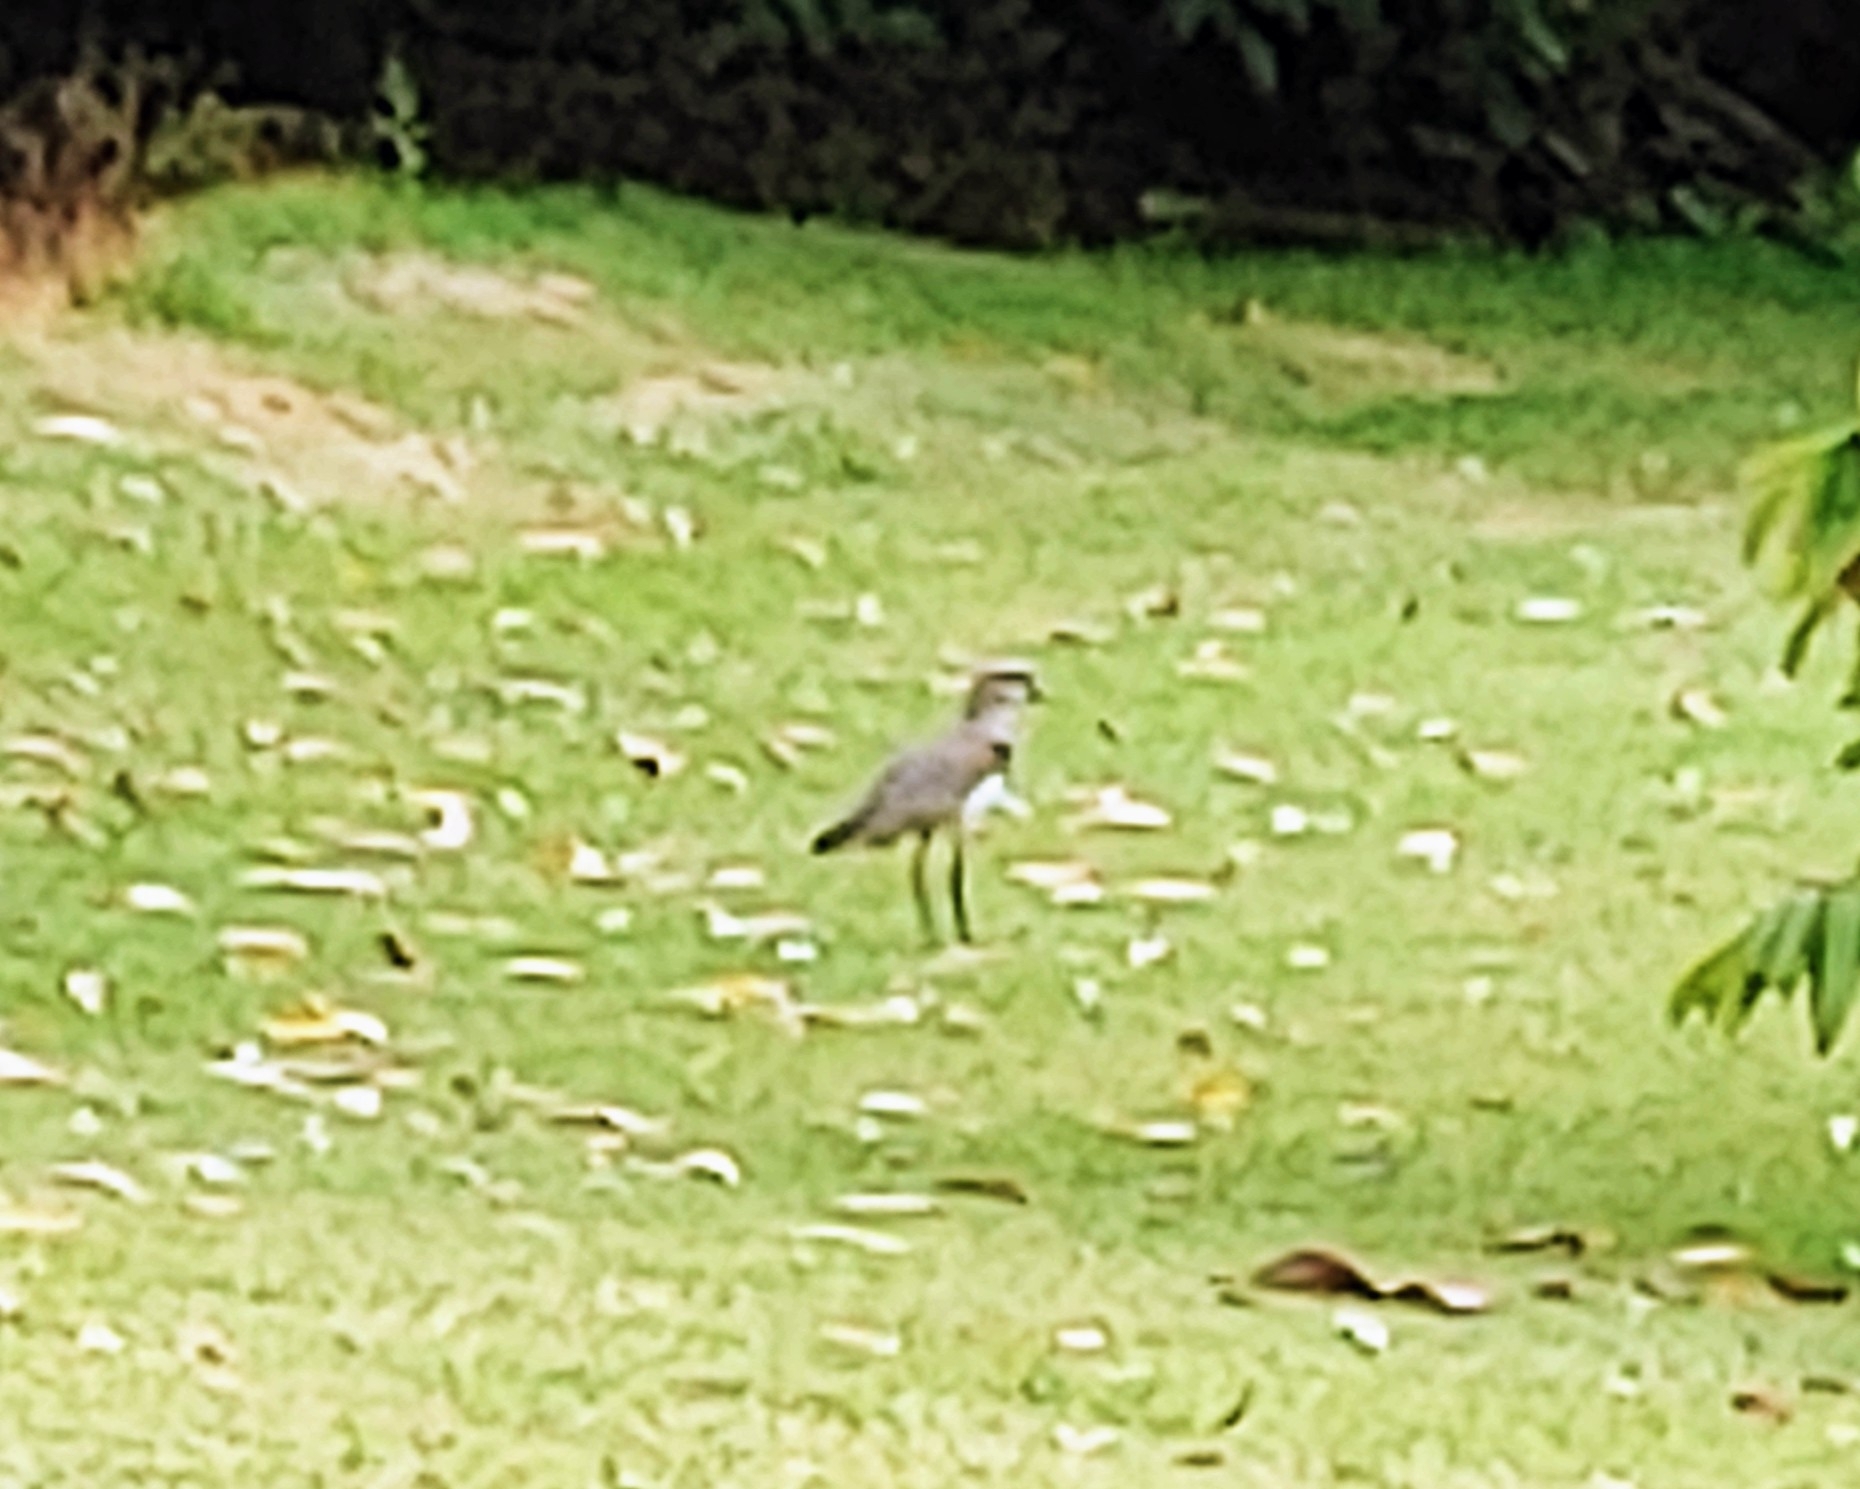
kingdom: Animalia
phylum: Chordata
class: Aves
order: Charadriiformes
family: Charadriidae
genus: Vanellus
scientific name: Vanellus chilensis
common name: Southern lapwing
